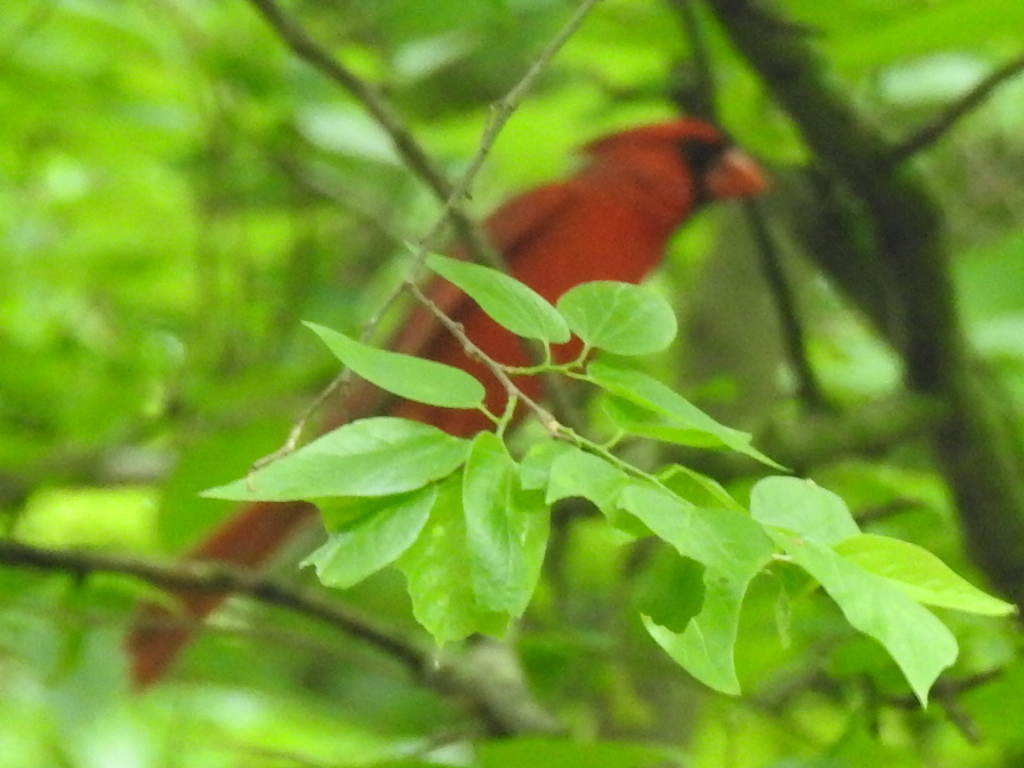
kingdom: Animalia
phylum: Chordata
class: Aves
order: Passeriformes
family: Cardinalidae
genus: Cardinalis
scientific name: Cardinalis cardinalis
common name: Northern cardinal
